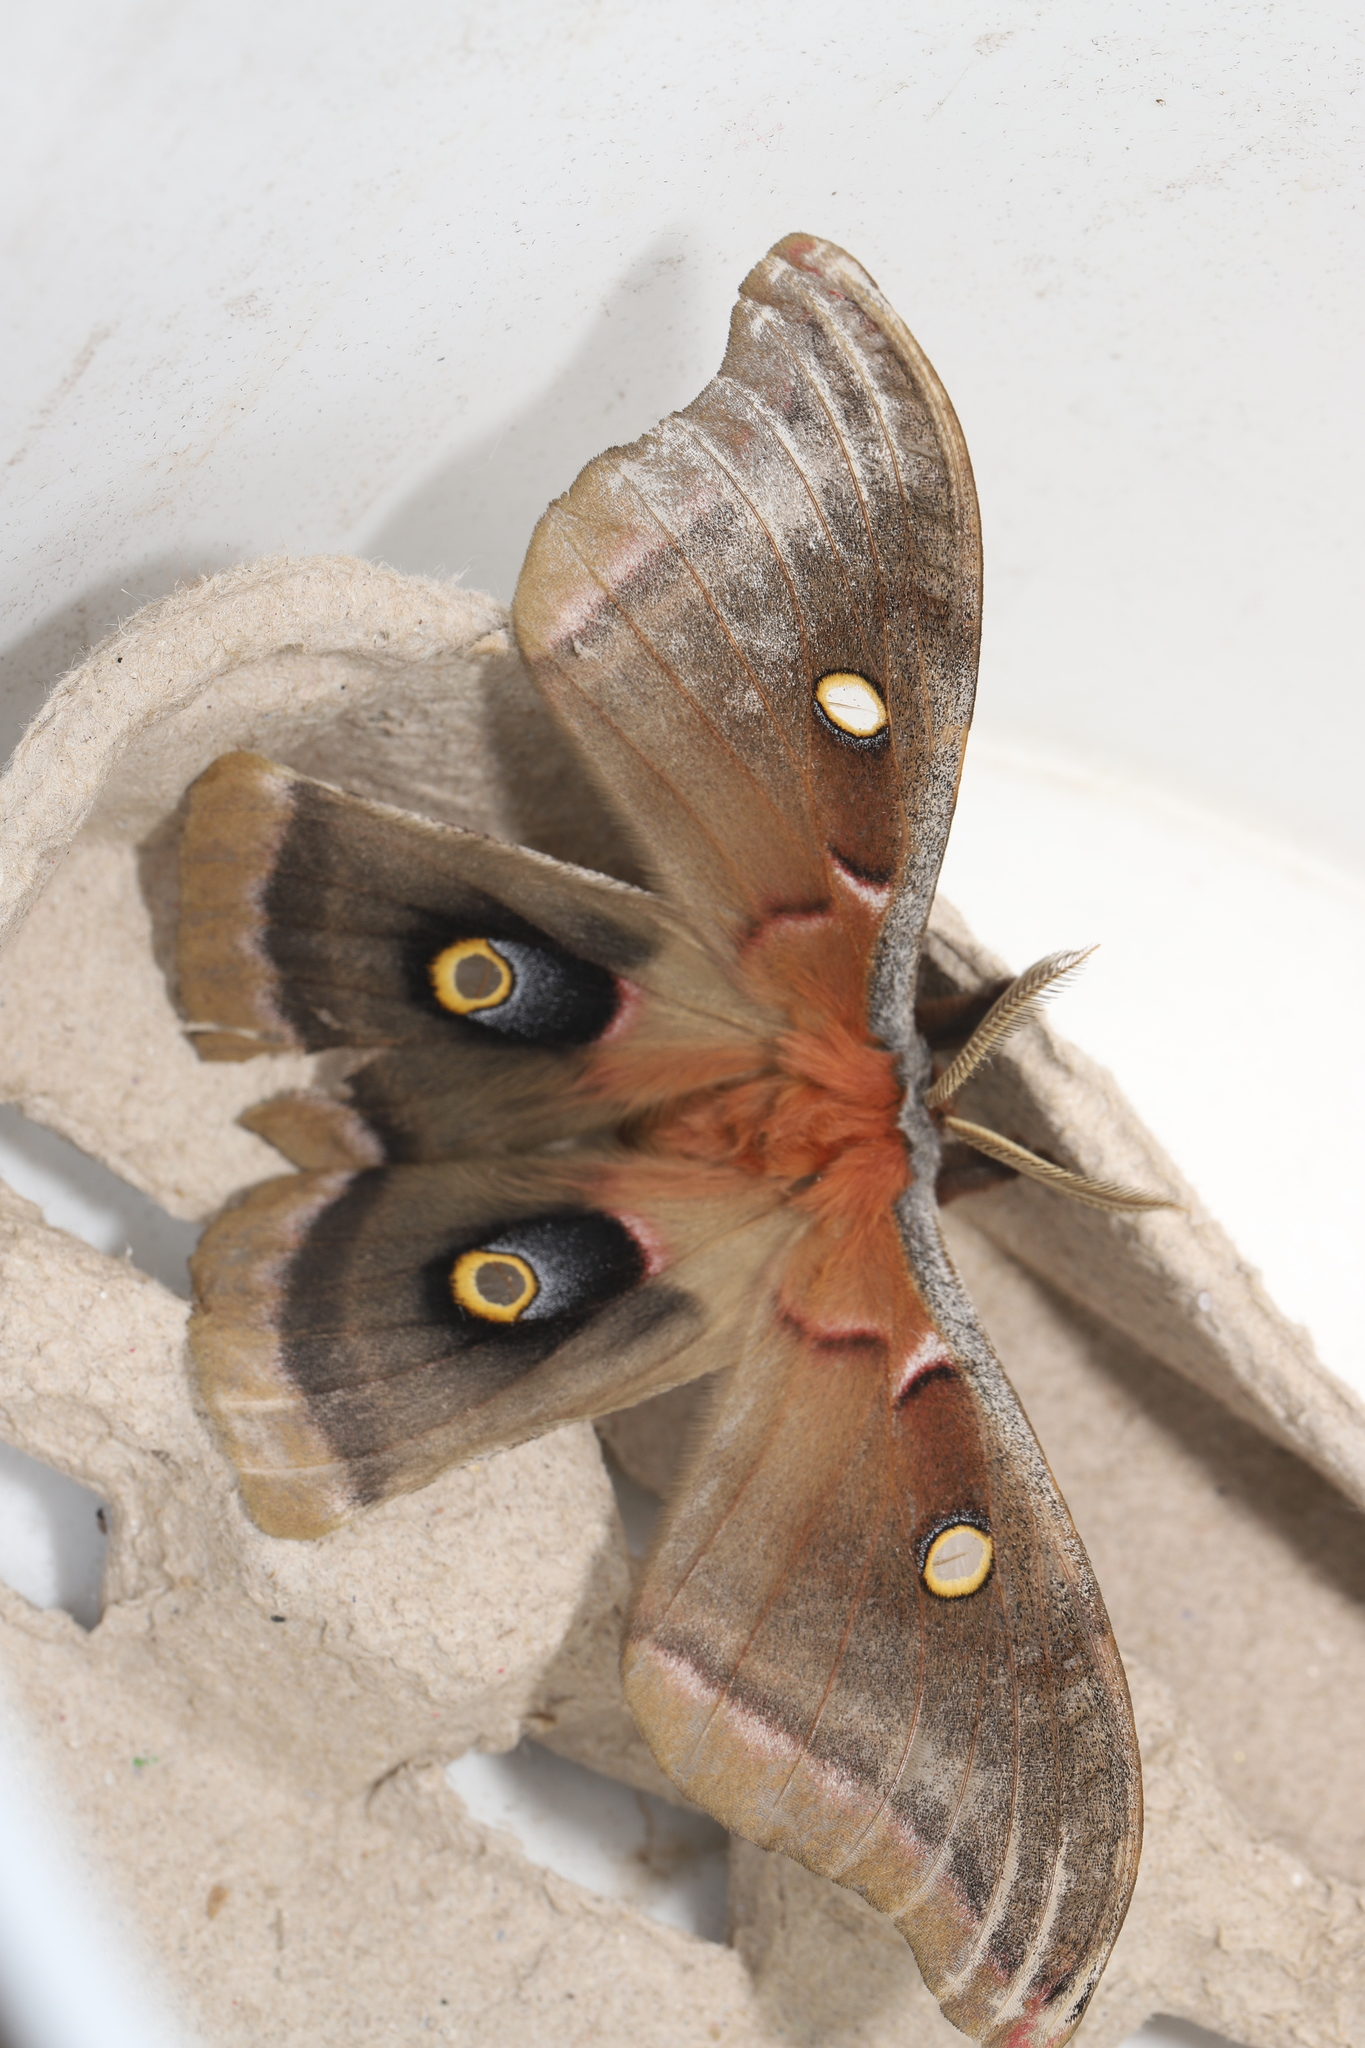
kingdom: Animalia
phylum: Arthropoda
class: Insecta
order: Lepidoptera
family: Saturniidae
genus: Antheraea
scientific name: Antheraea polyphemus
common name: Polyphemus moth
